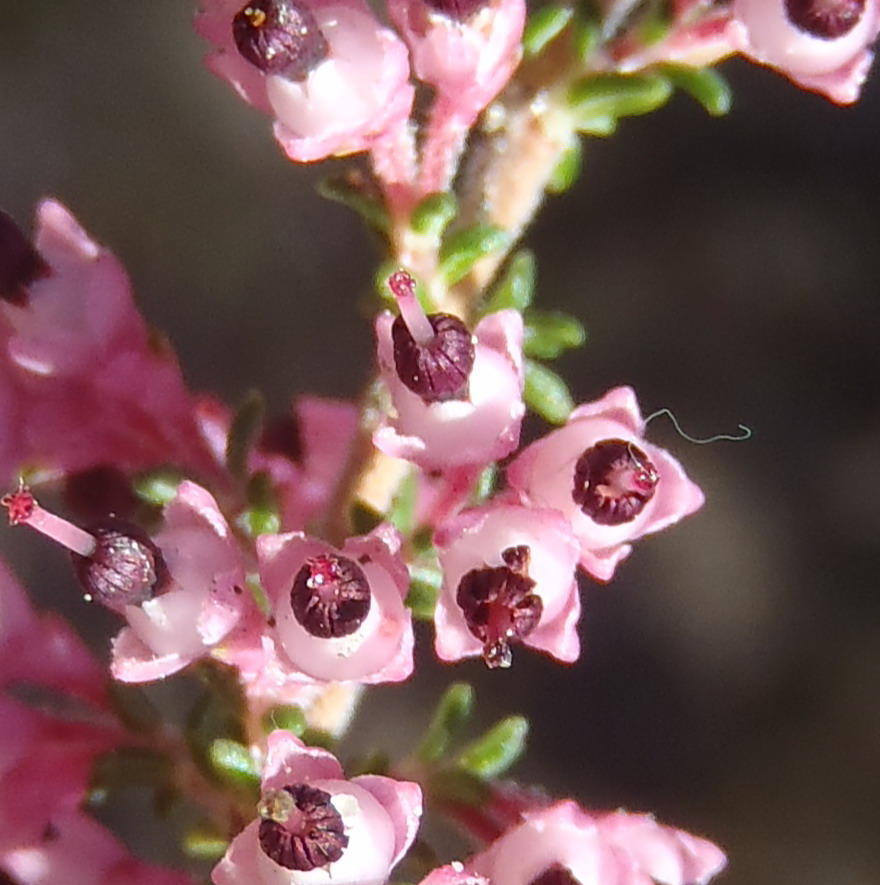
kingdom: Plantae
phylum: Tracheophyta
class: Magnoliopsida
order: Ericales
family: Ericaceae
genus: Erica
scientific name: Erica placentiflora
